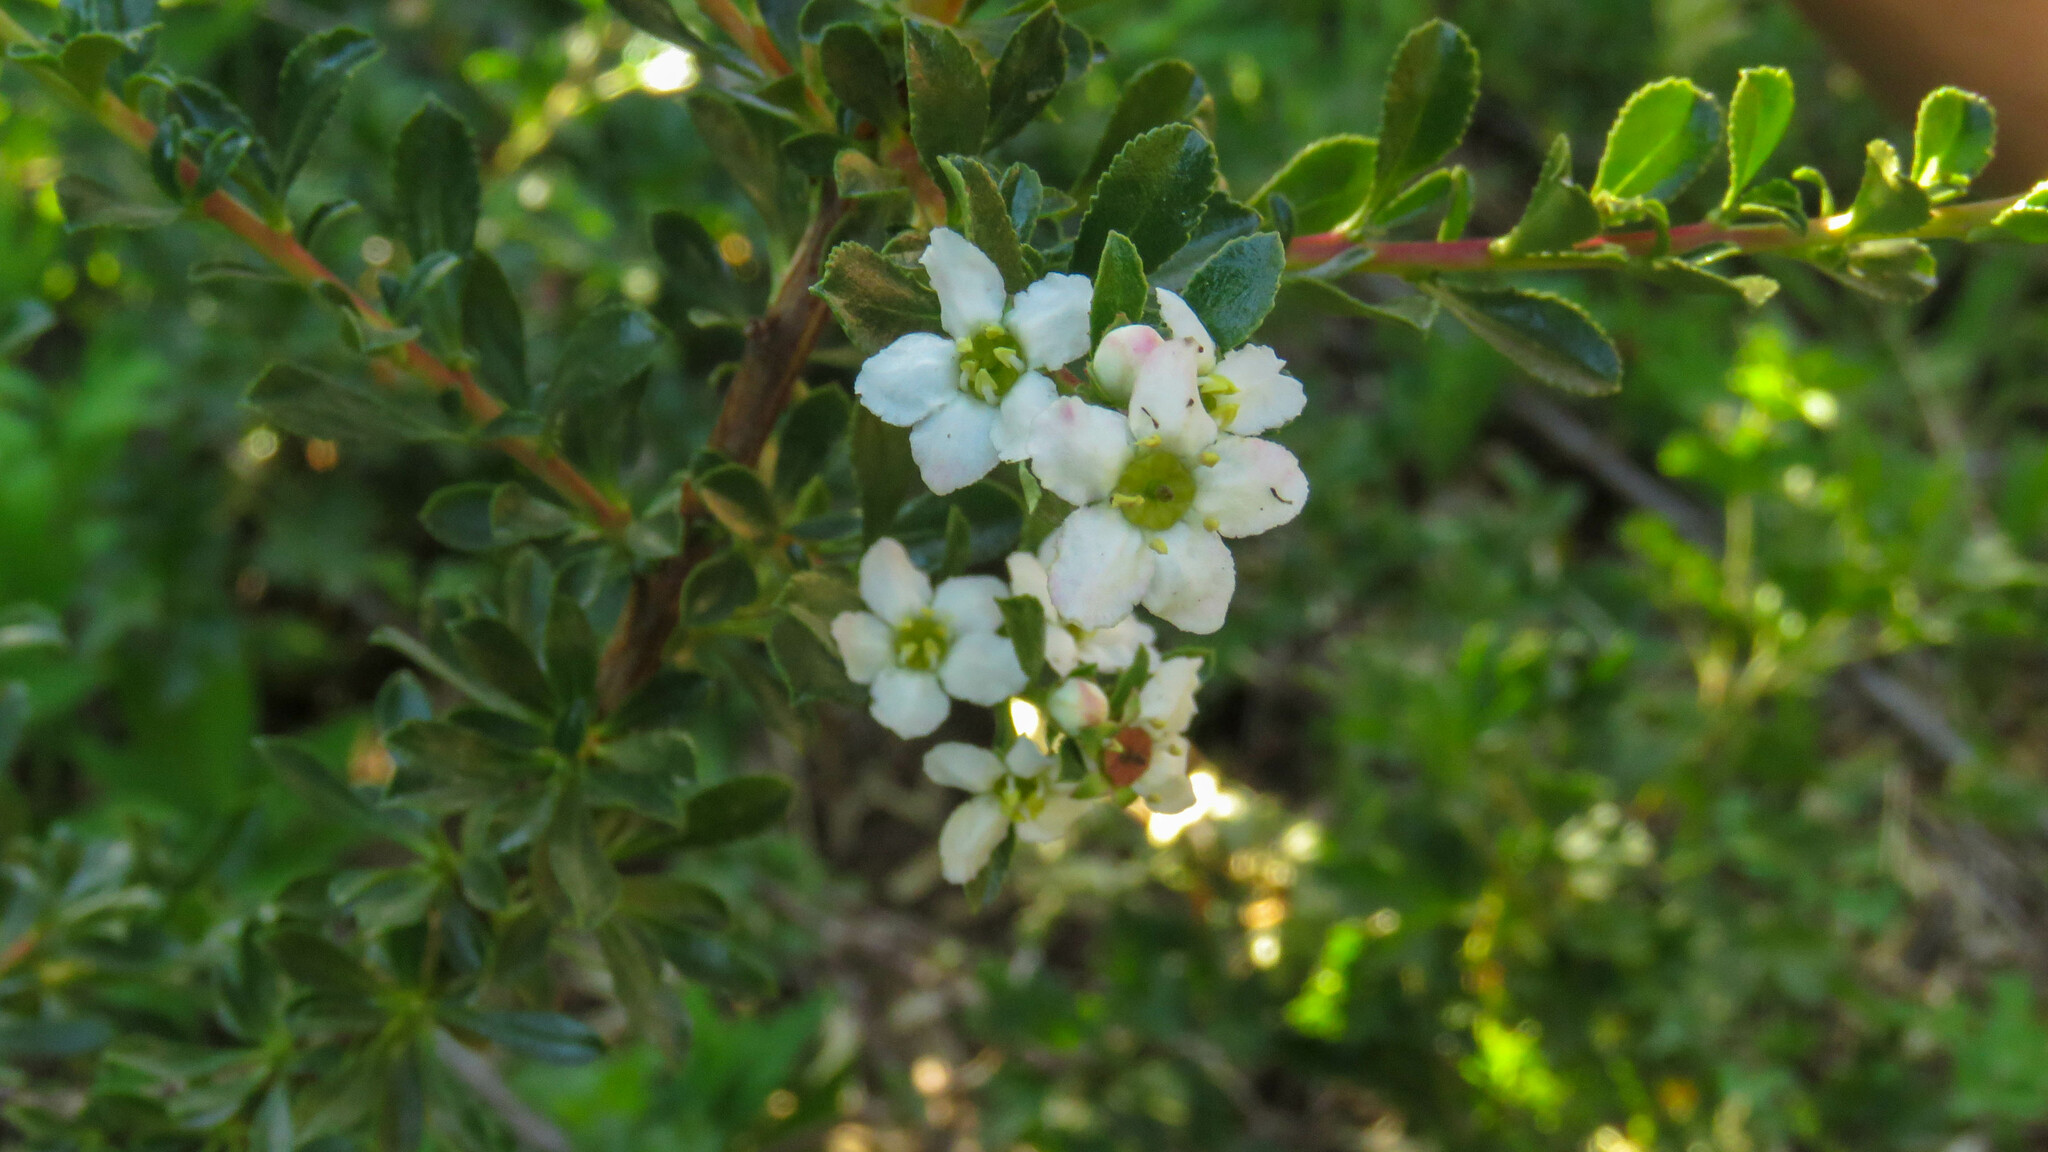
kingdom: Plantae
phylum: Tracheophyta
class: Magnoliopsida
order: Escalloniales
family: Escalloniaceae
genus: Escallonia
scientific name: Escallonia virgata
